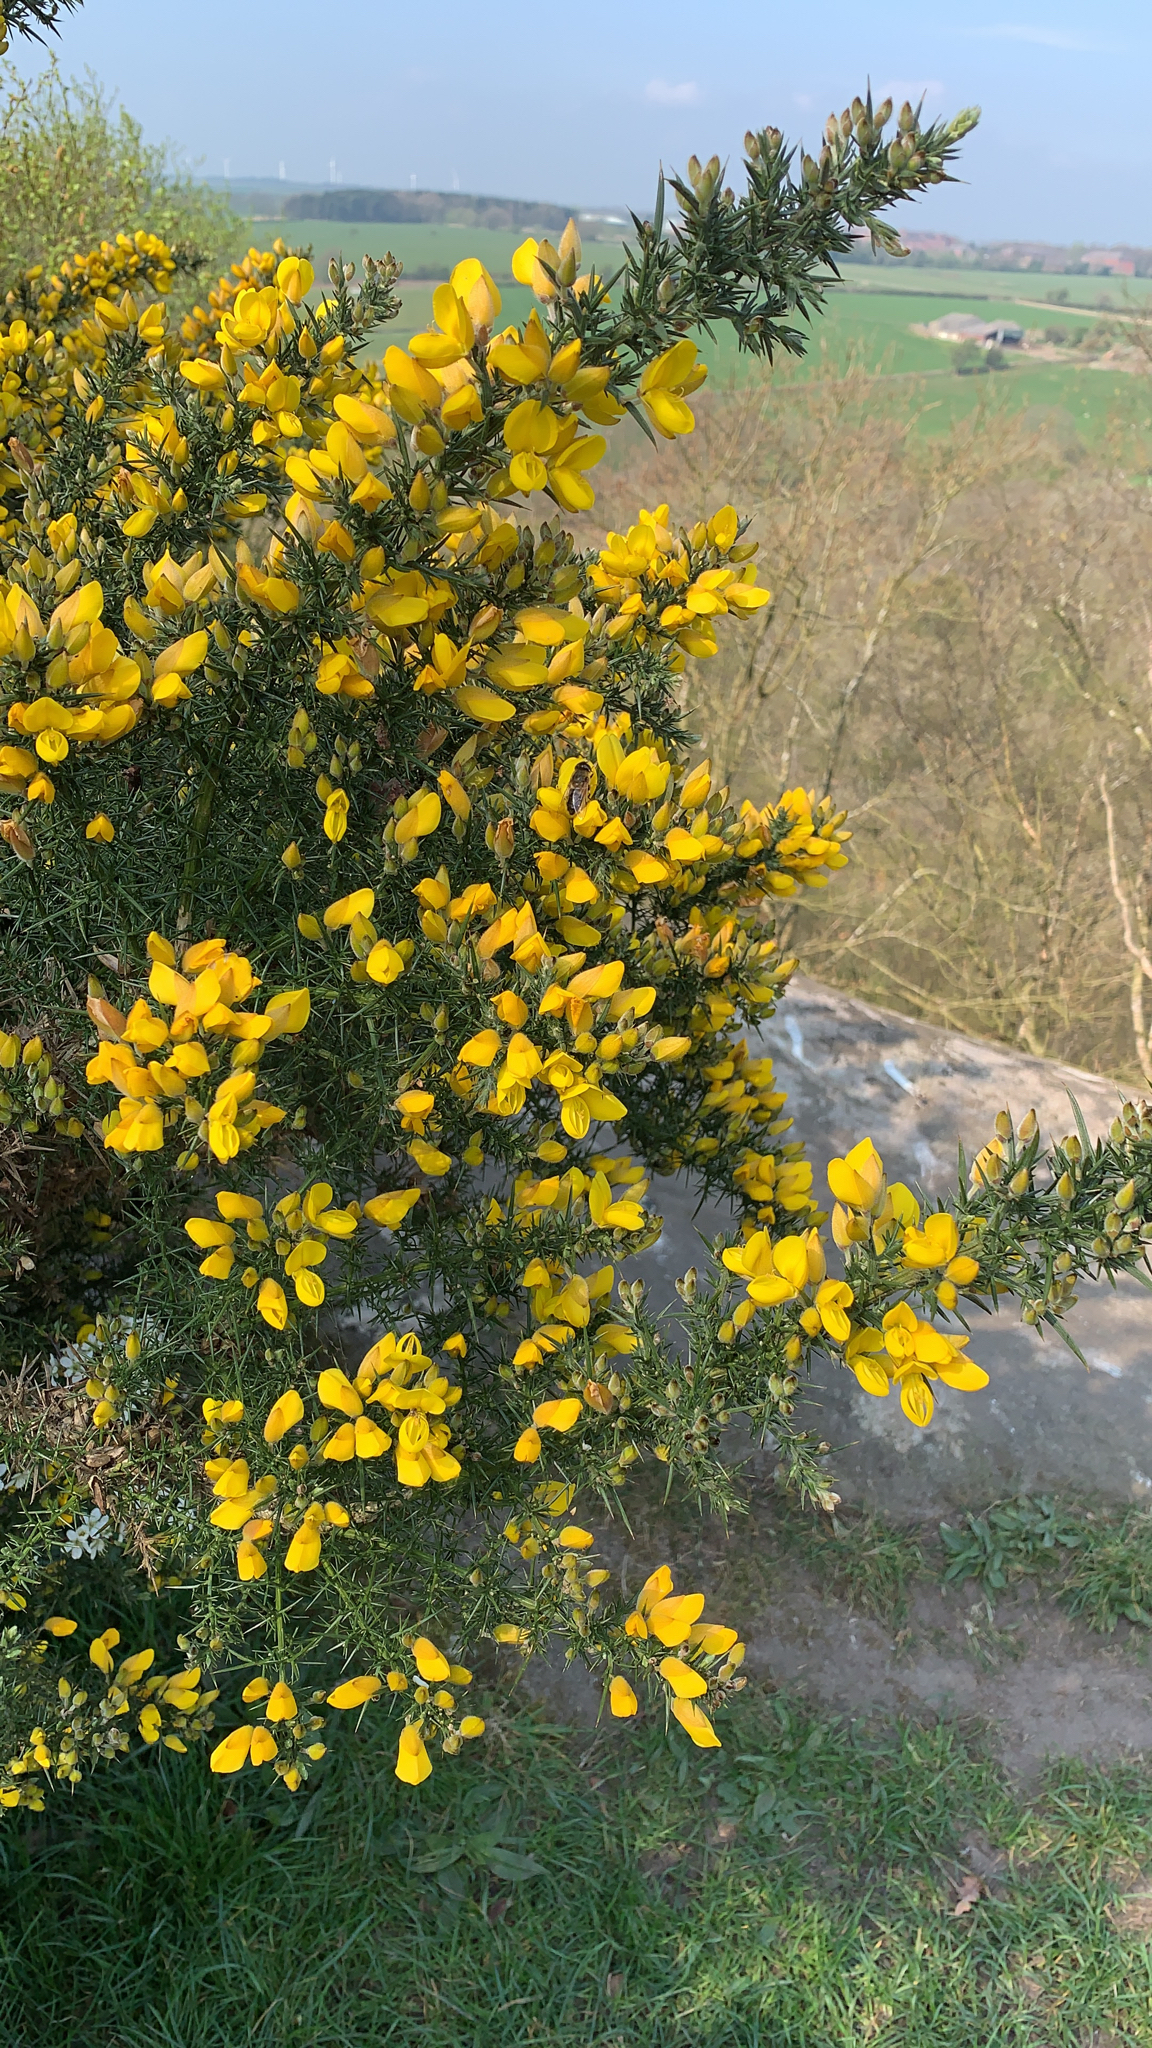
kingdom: Plantae
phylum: Tracheophyta
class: Magnoliopsida
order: Fabales
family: Fabaceae
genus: Ulex
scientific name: Ulex europaeus
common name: Common gorse
